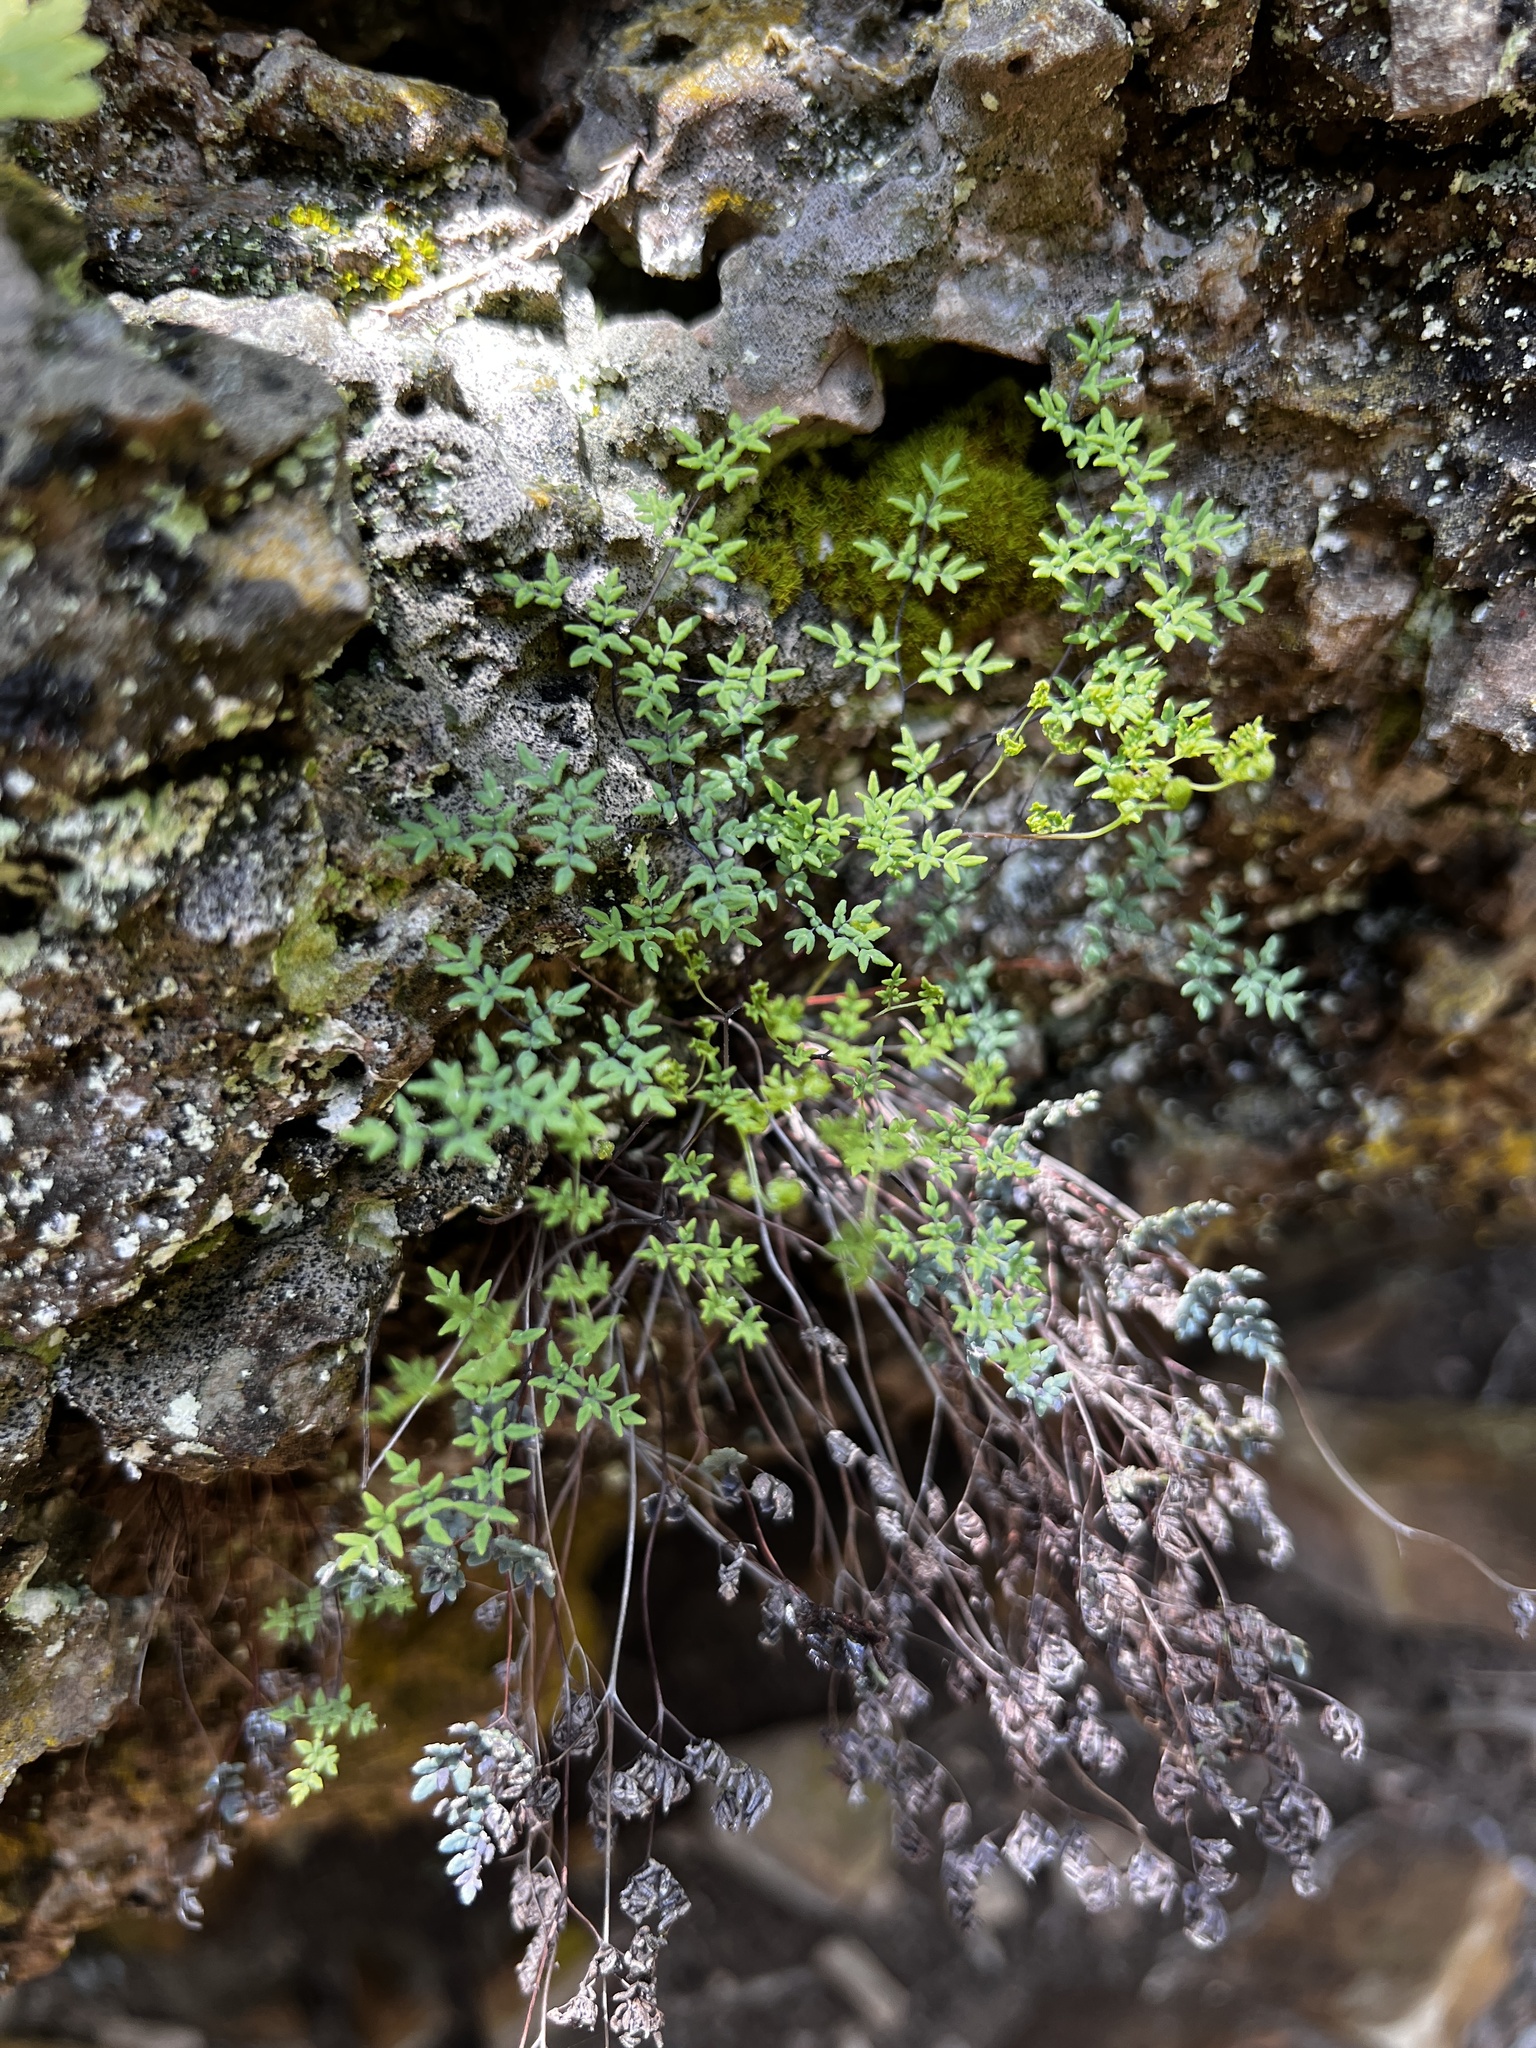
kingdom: Plantae
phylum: Tracheophyta
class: Polypodiopsida
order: Polypodiales
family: Pteridaceae
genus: Argyrochosma
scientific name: Argyrochosma dealbata
